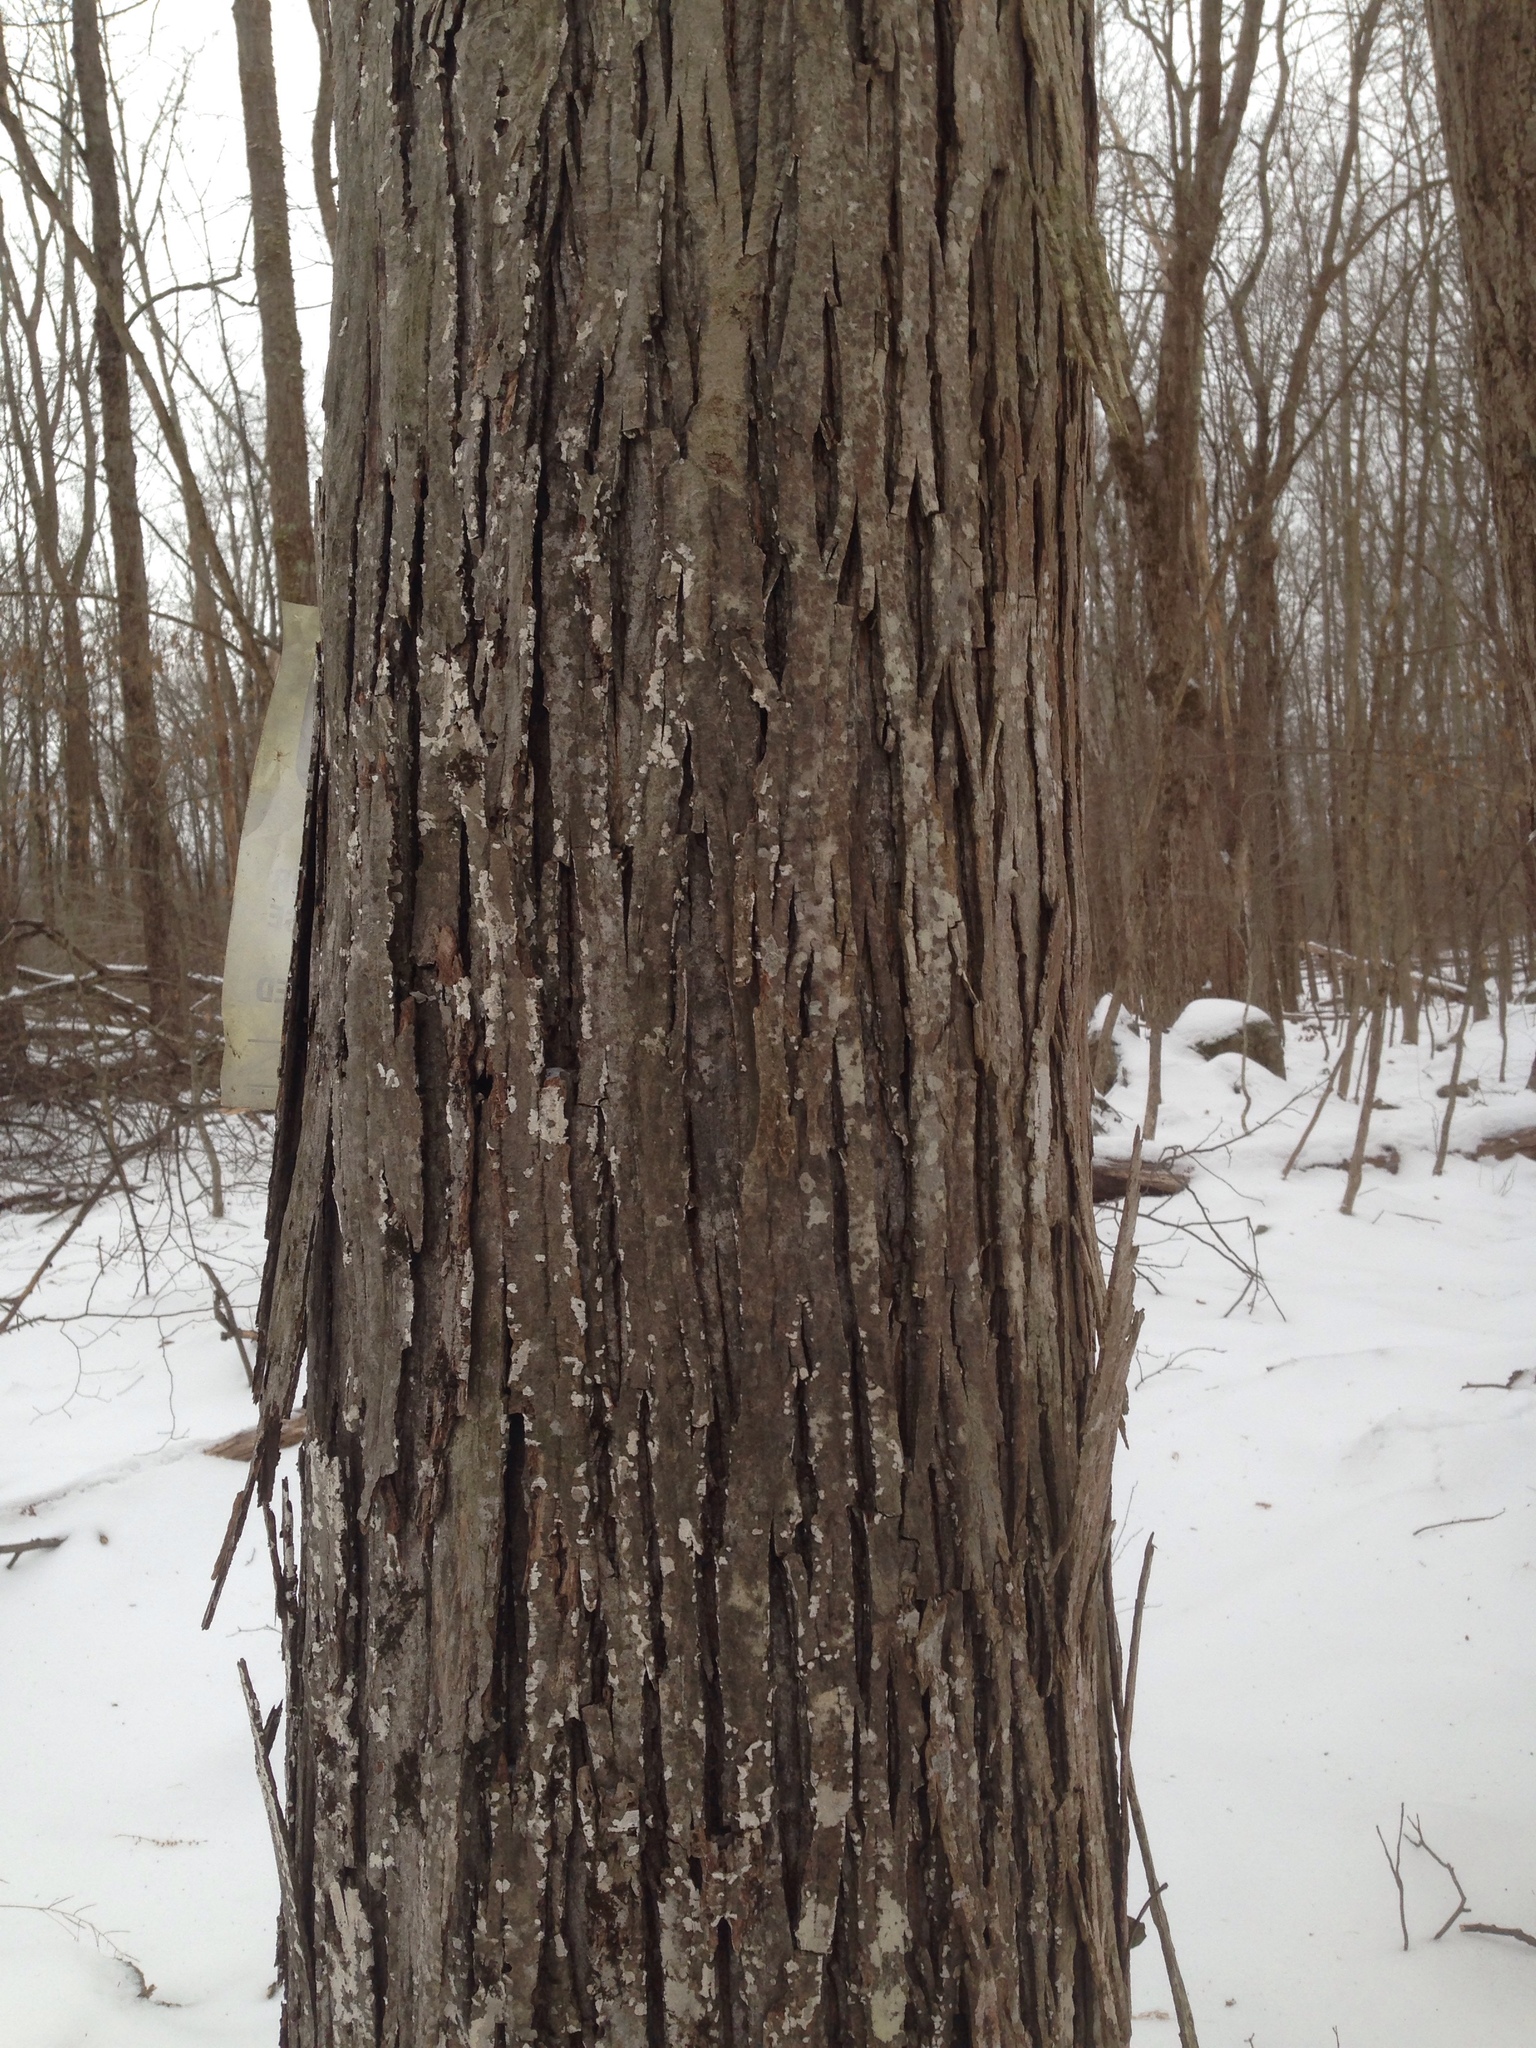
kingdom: Plantae
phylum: Tracheophyta
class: Magnoliopsida
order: Fagales
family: Juglandaceae
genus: Carya
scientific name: Carya ovata
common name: Shagbark hickory
